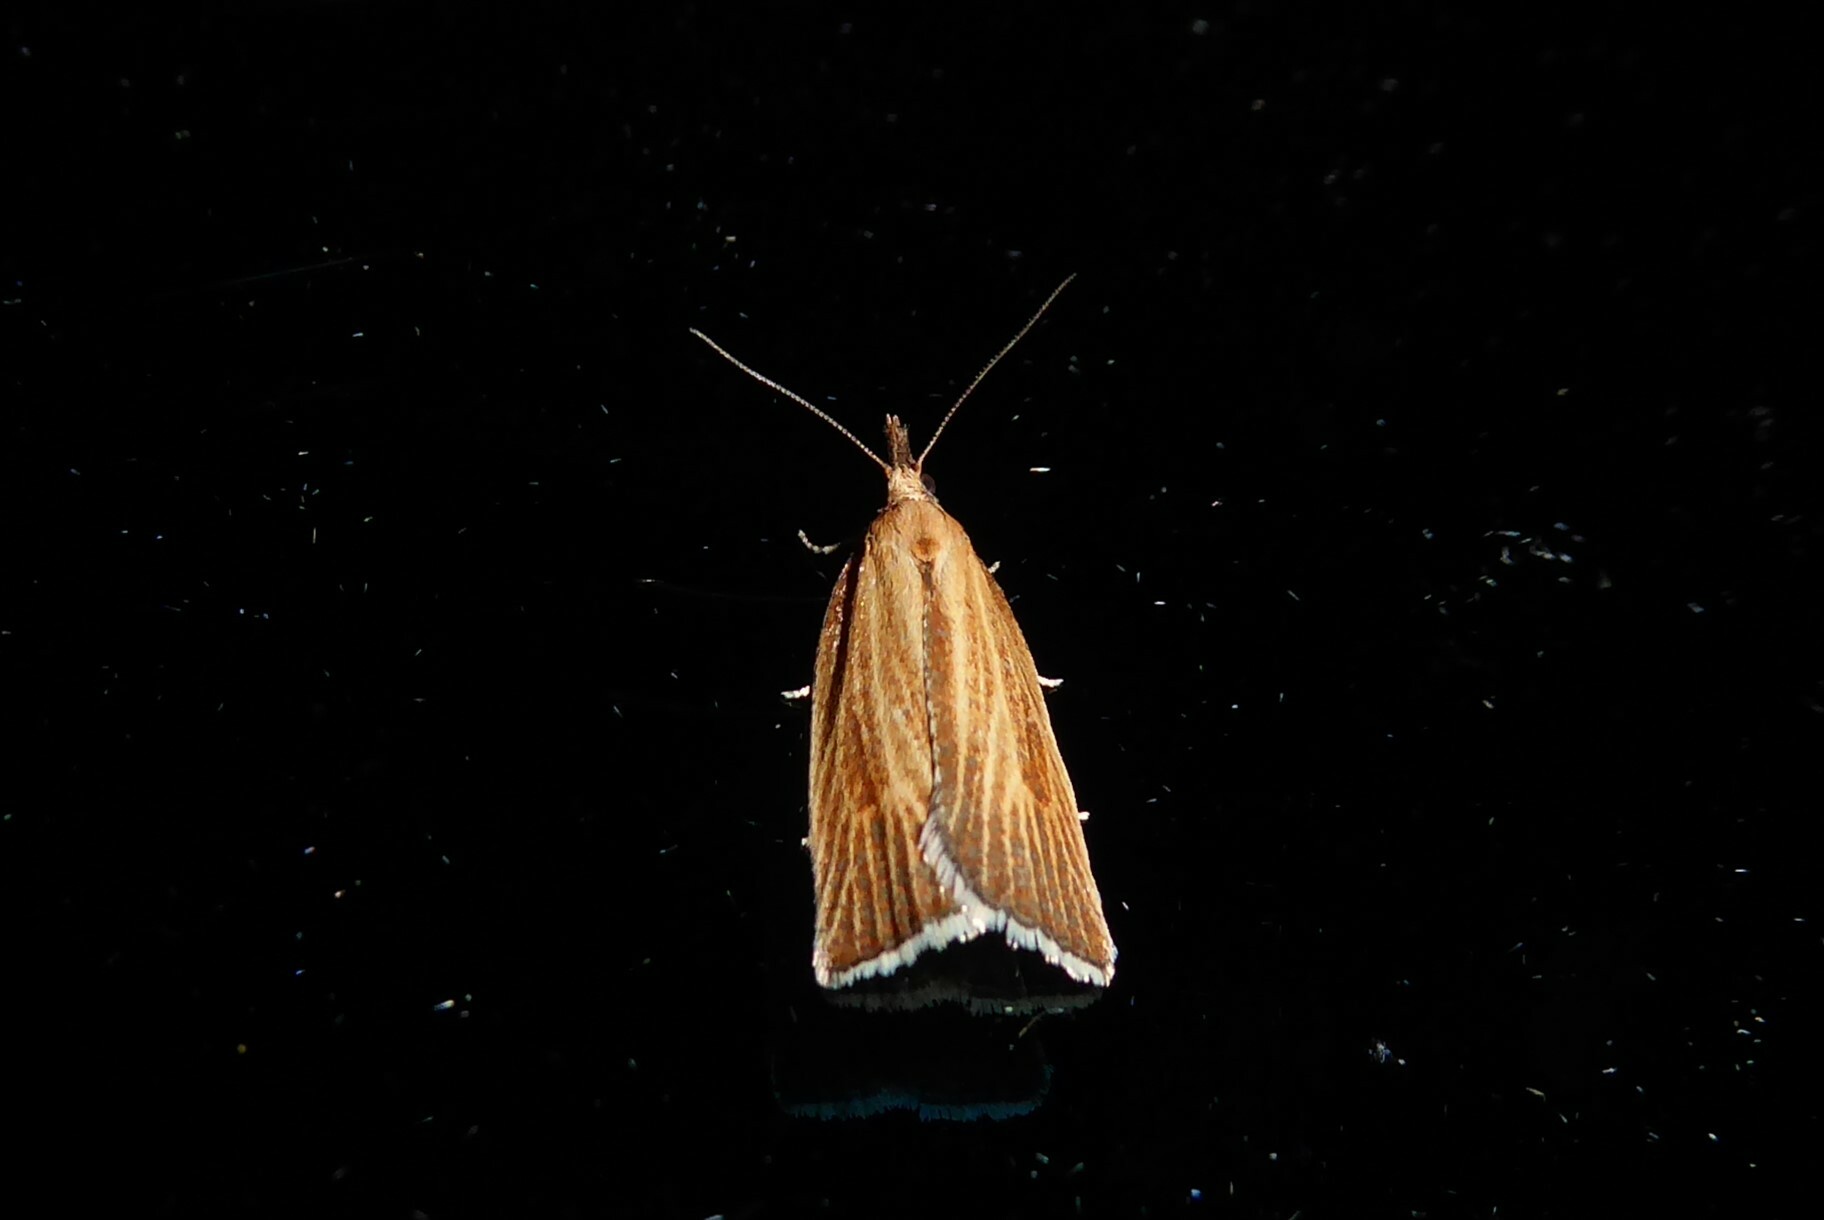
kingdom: Animalia
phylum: Arthropoda
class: Insecta
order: Lepidoptera
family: Tortricidae
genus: Catamacta
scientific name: Catamacta lotinana
